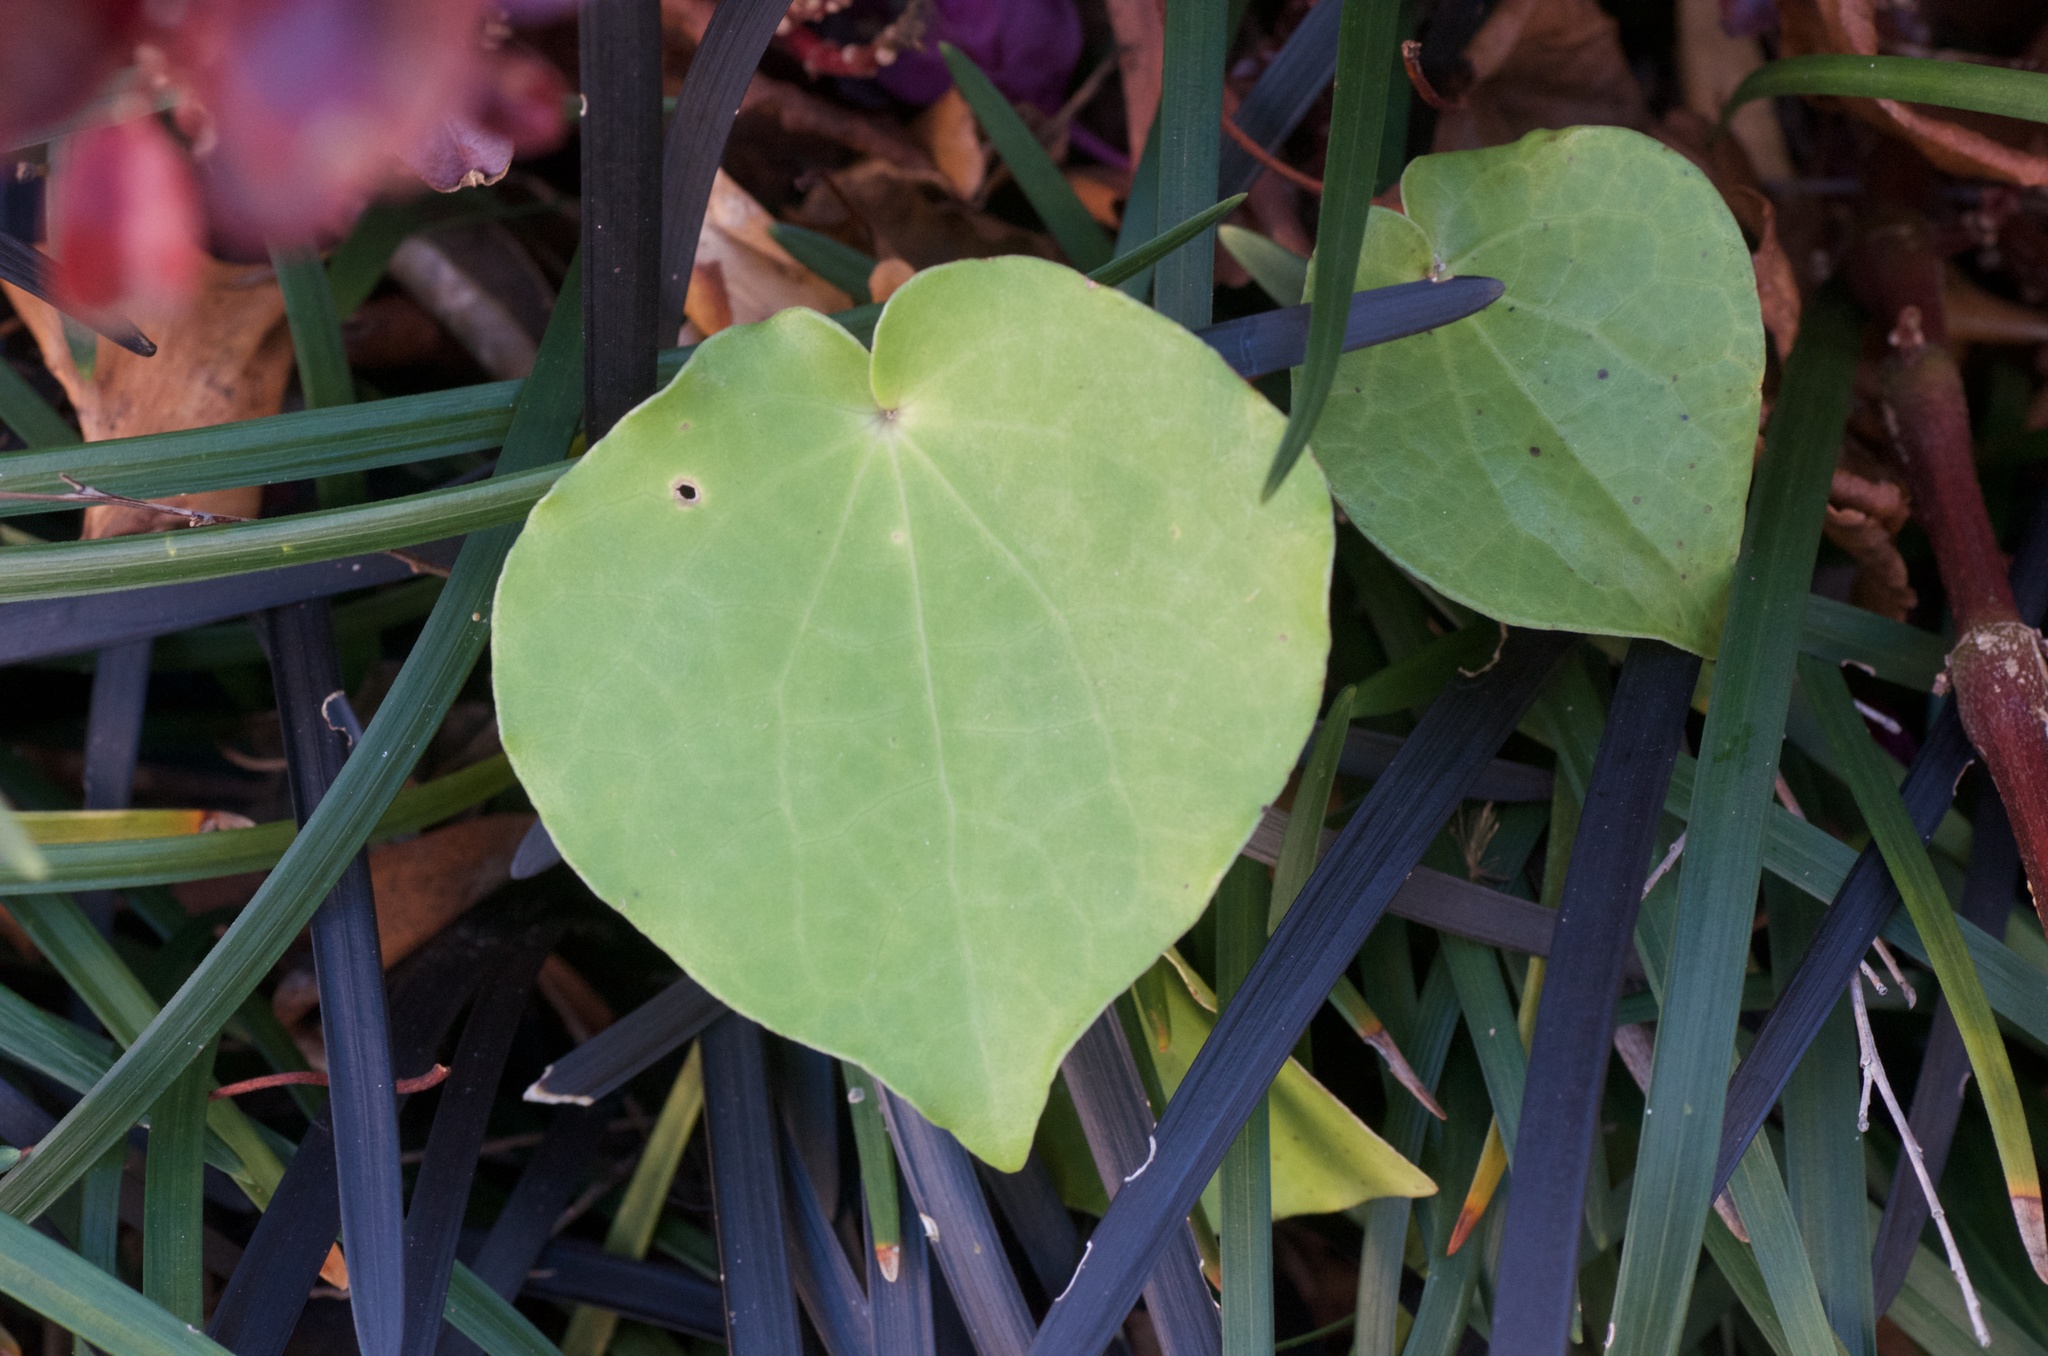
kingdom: Plantae
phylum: Tracheophyta
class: Magnoliopsida
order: Piperales
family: Piperaceae
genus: Macropiper
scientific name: Macropiper excelsum
